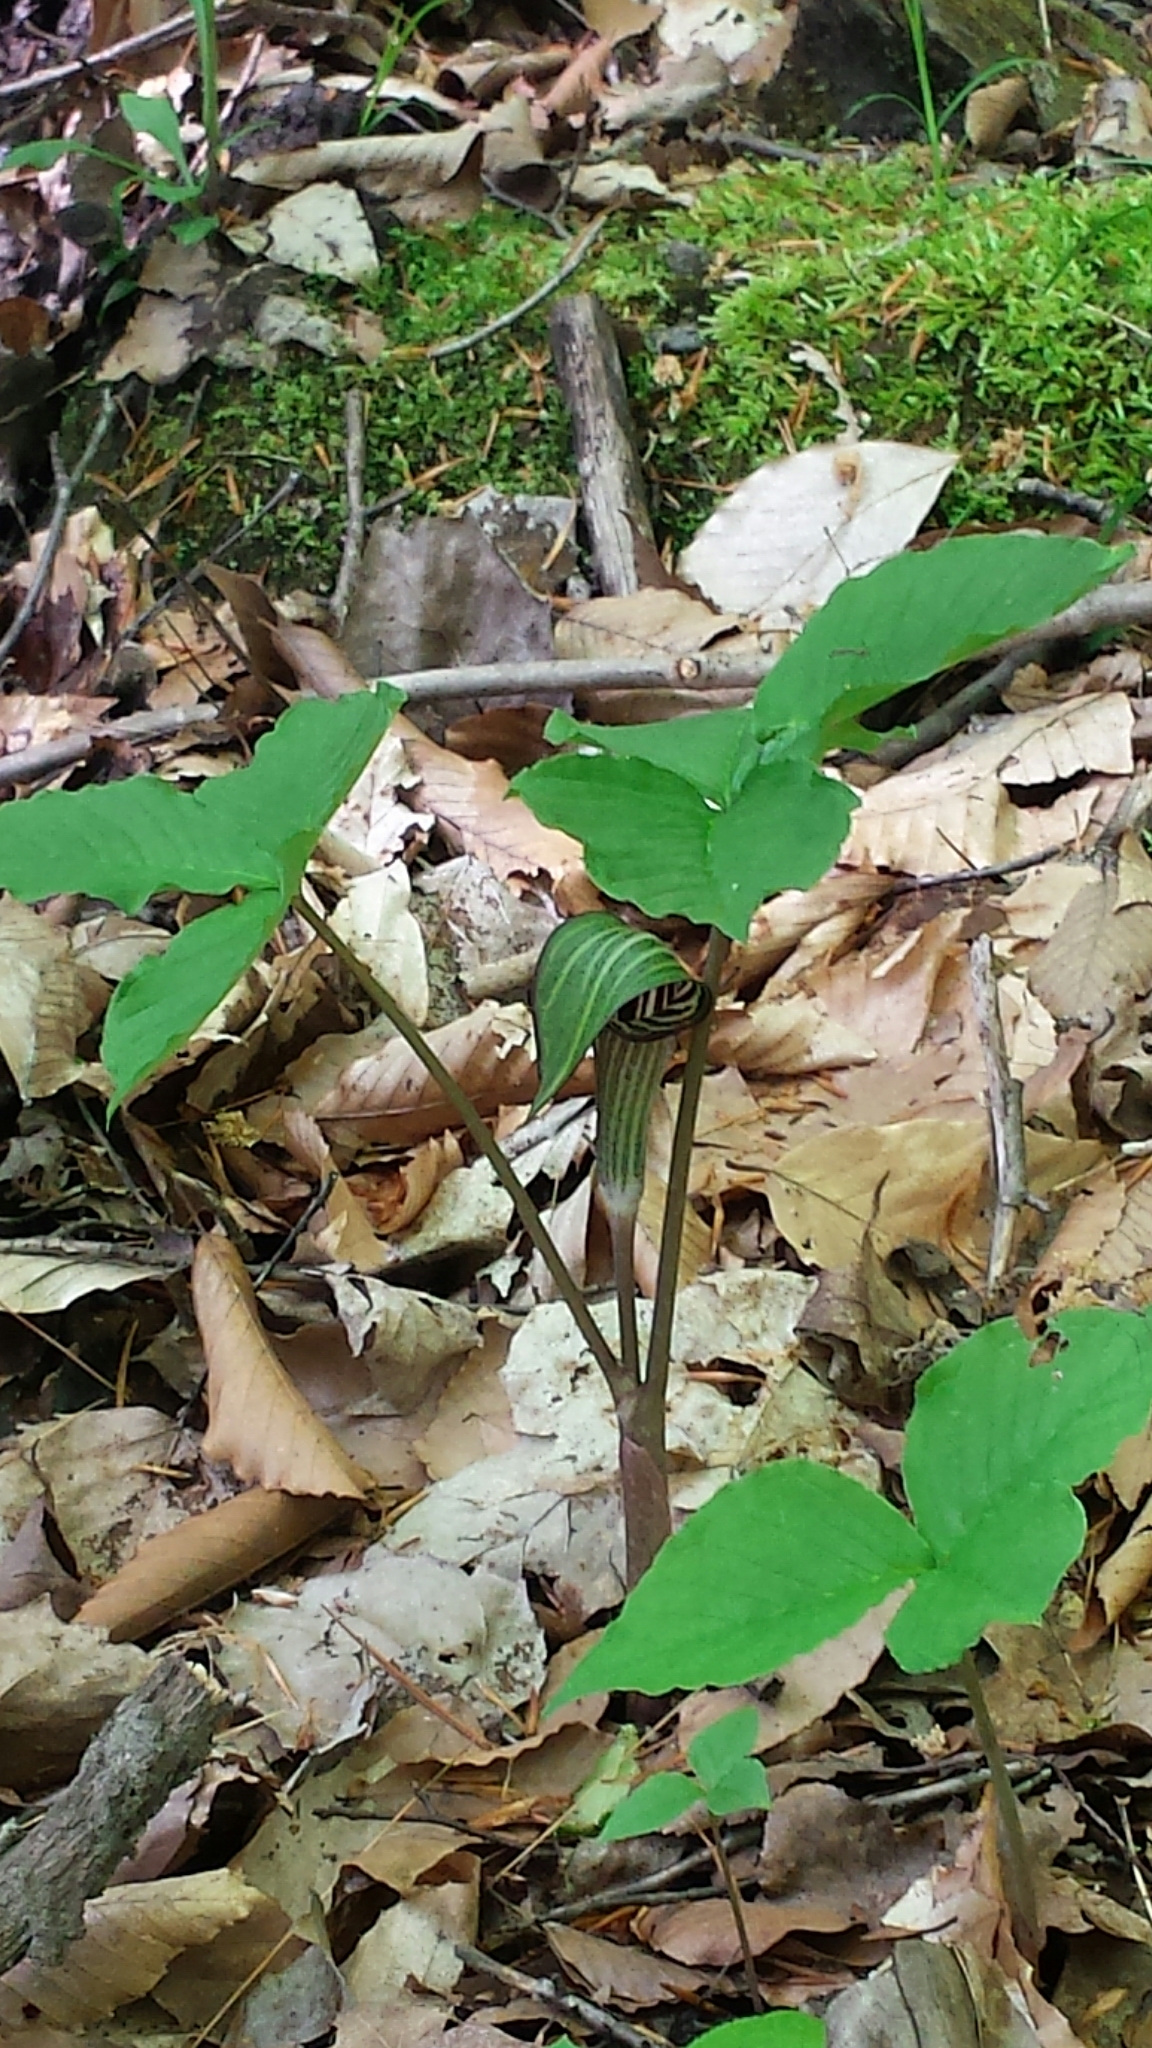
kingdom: Plantae
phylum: Tracheophyta
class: Liliopsida
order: Alismatales
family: Araceae
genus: Arisaema
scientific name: Arisaema triphyllum
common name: Jack-in-the-pulpit
